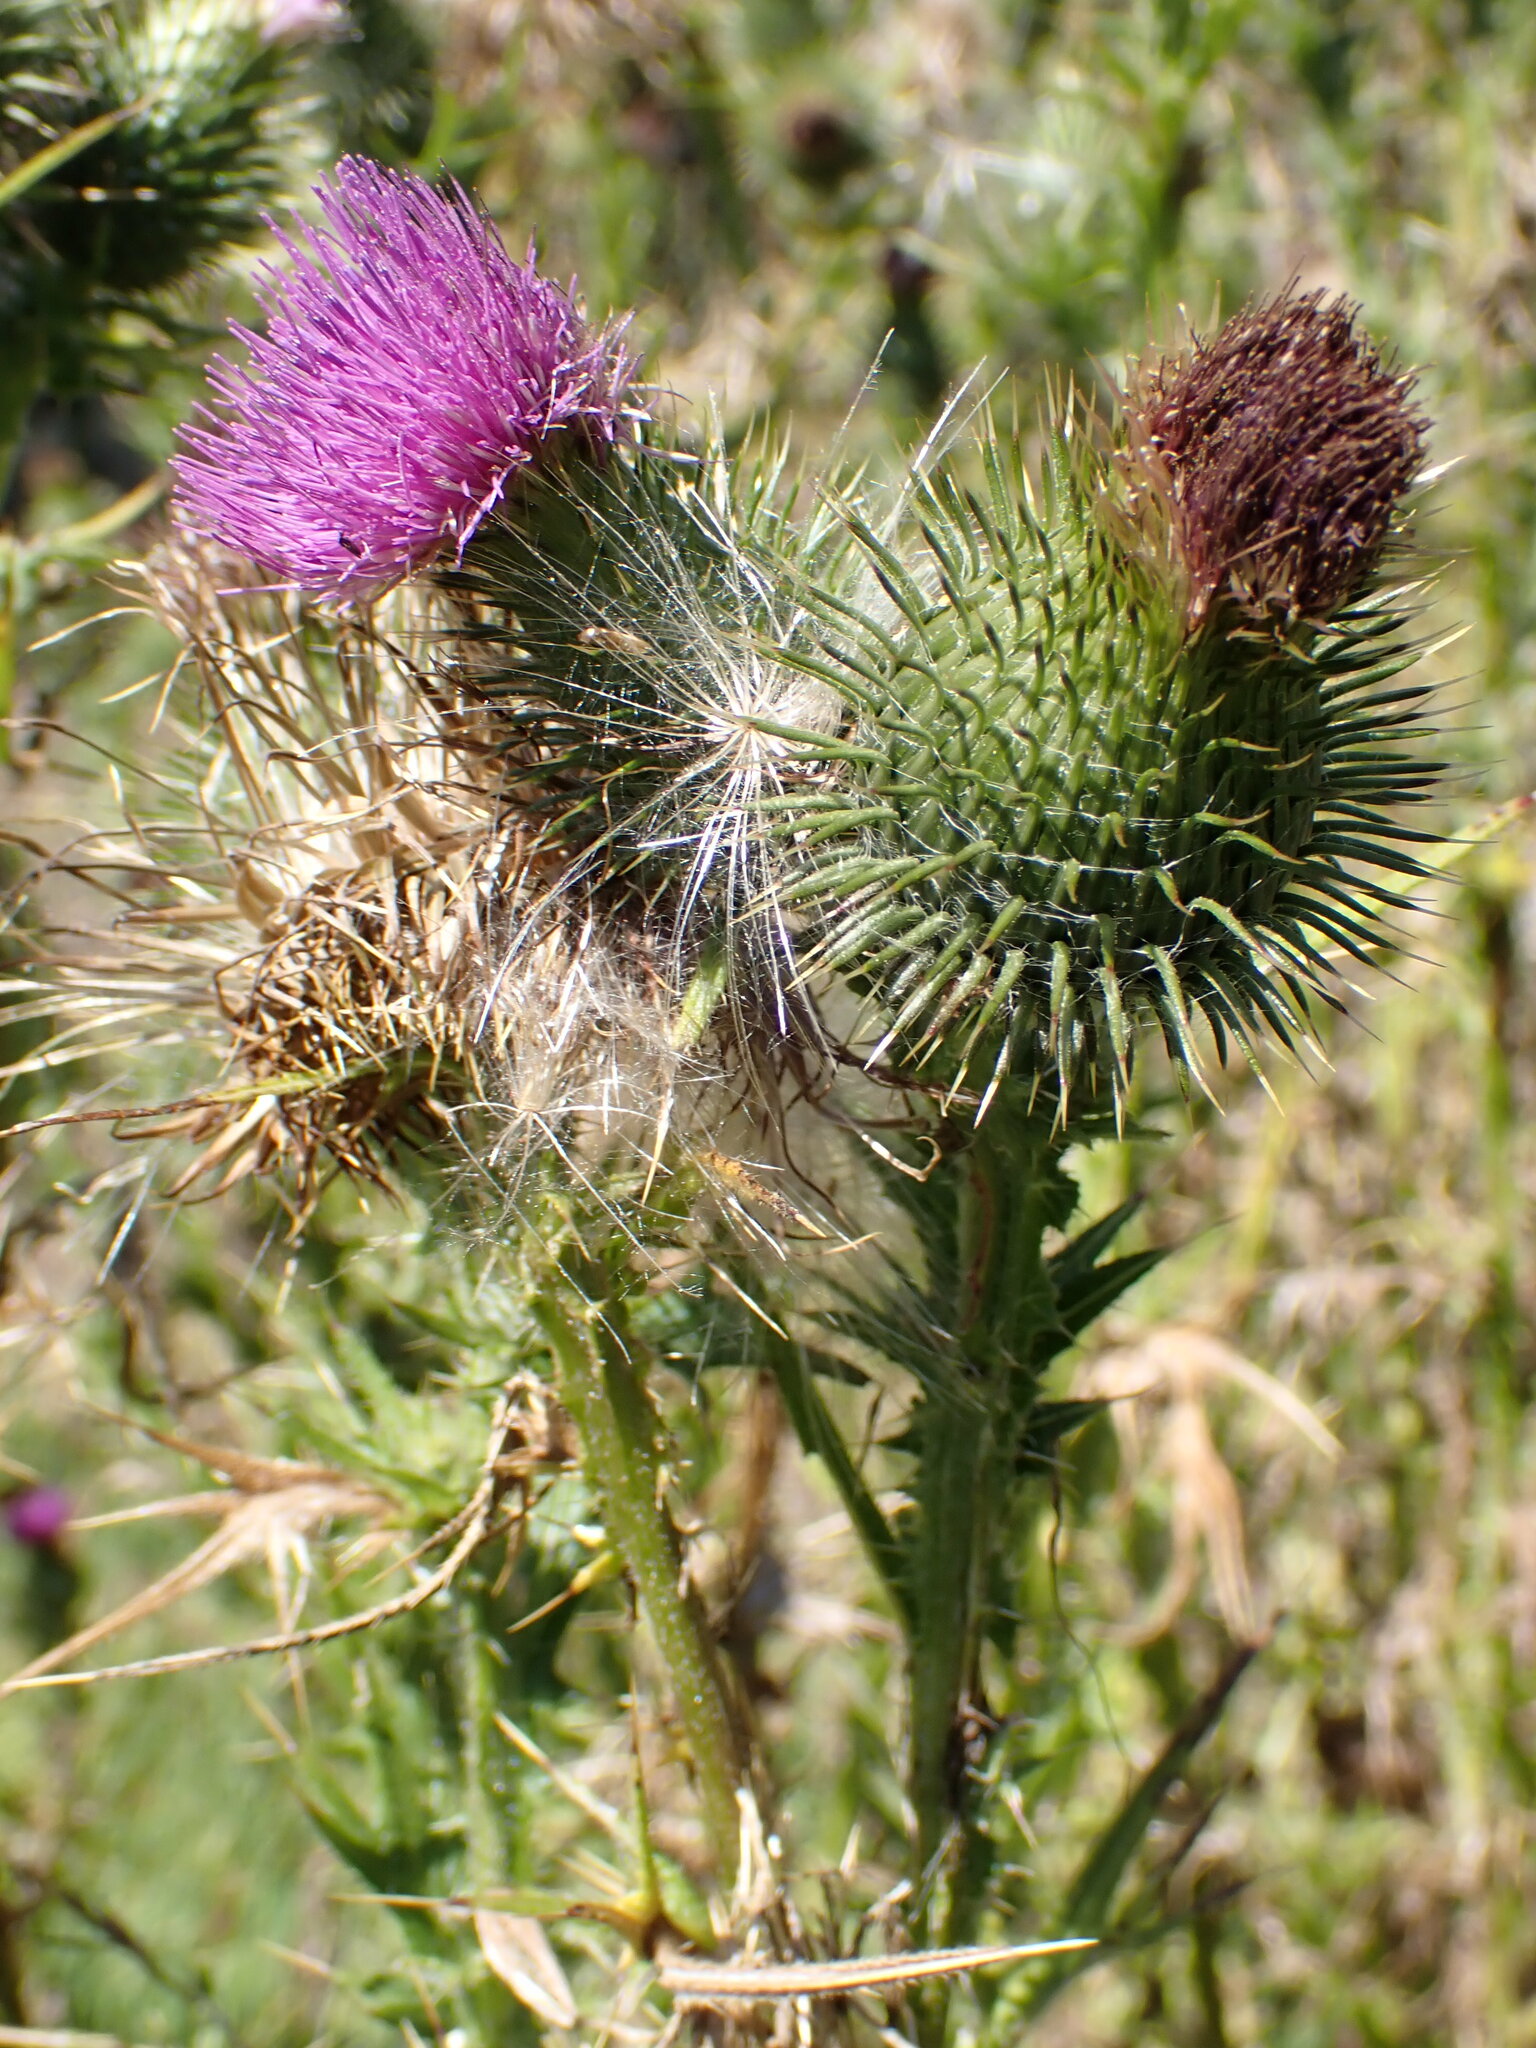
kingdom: Plantae
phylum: Tracheophyta
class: Magnoliopsida
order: Asterales
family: Asteraceae
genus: Cirsium
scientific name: Cirsium vulgare
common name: Bull thistle
